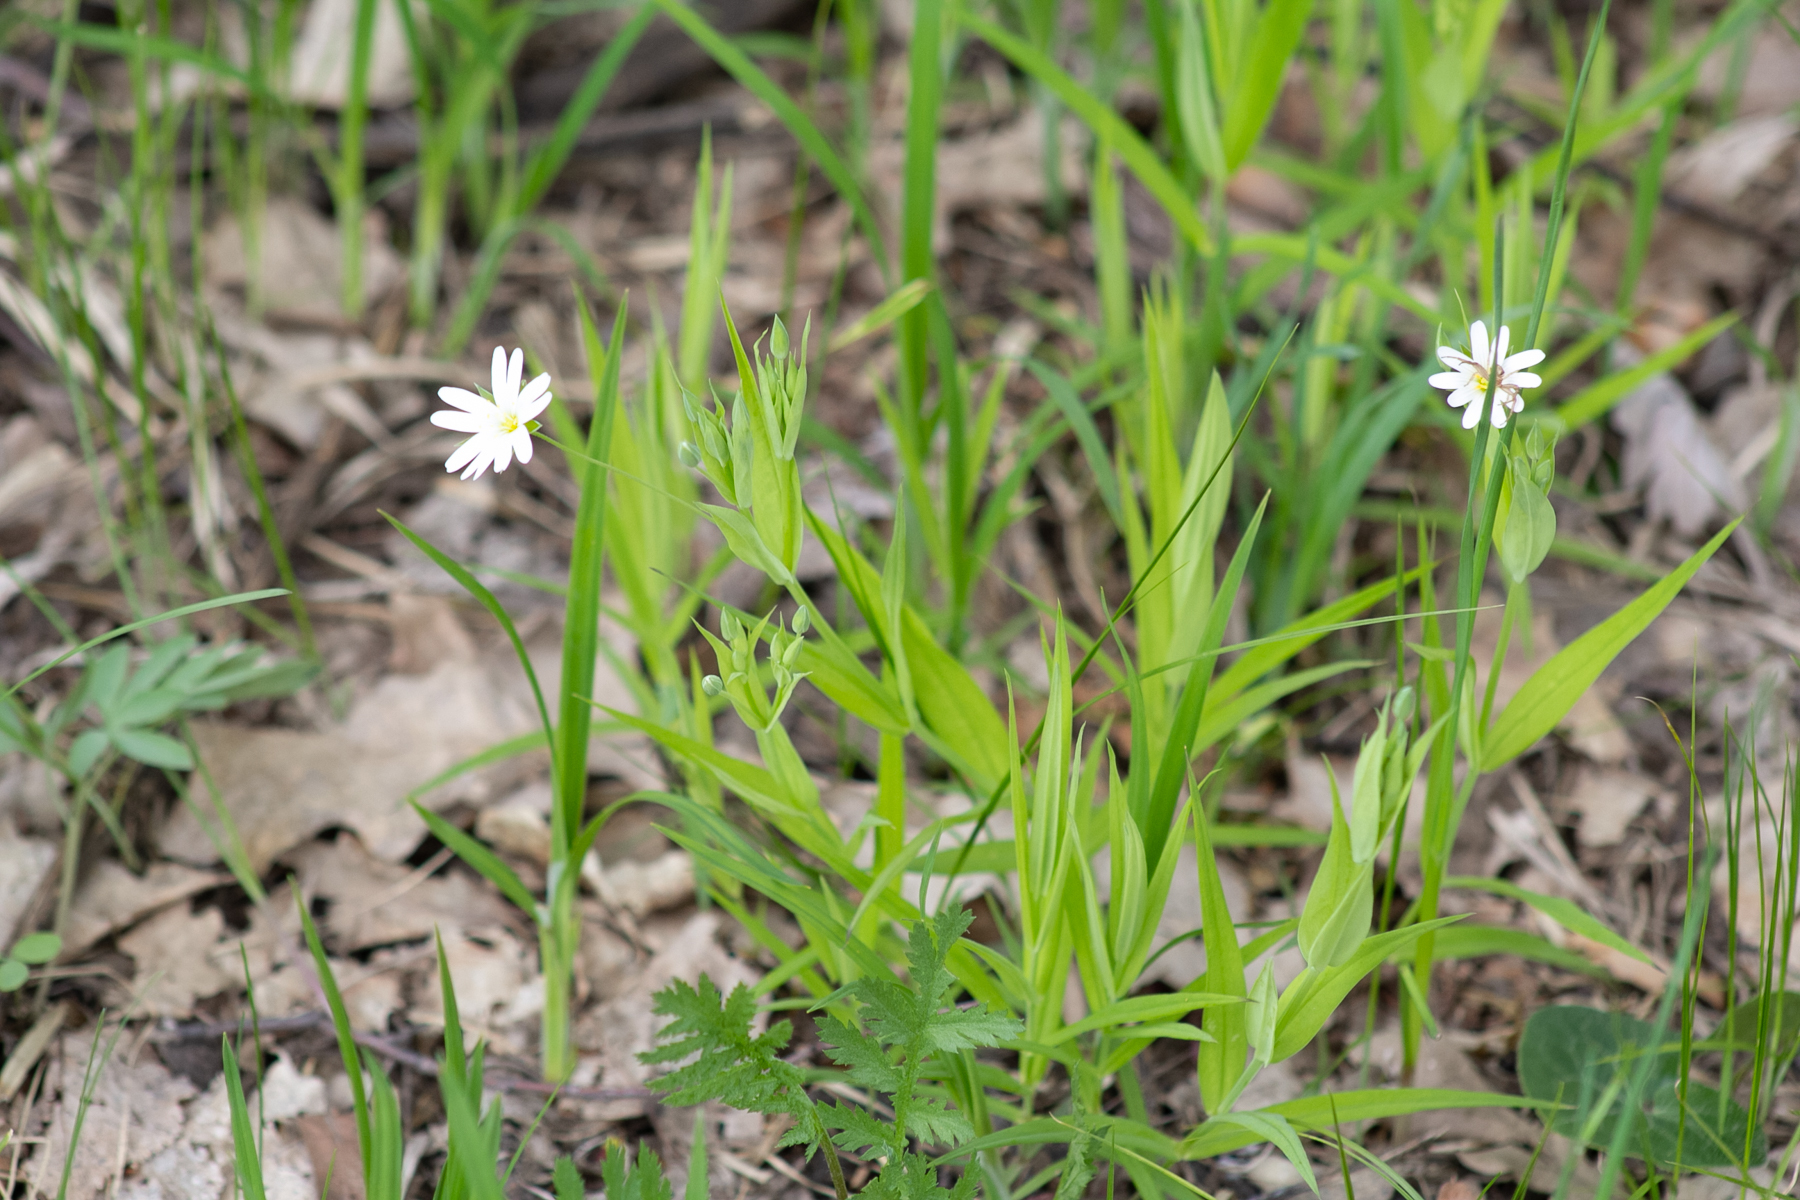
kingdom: Plantae
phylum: Tracheophyta
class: Magnoliopsida
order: Caryophyllales
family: Caryophyllaceae
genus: Rabelera
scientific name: Rabelera holostea
